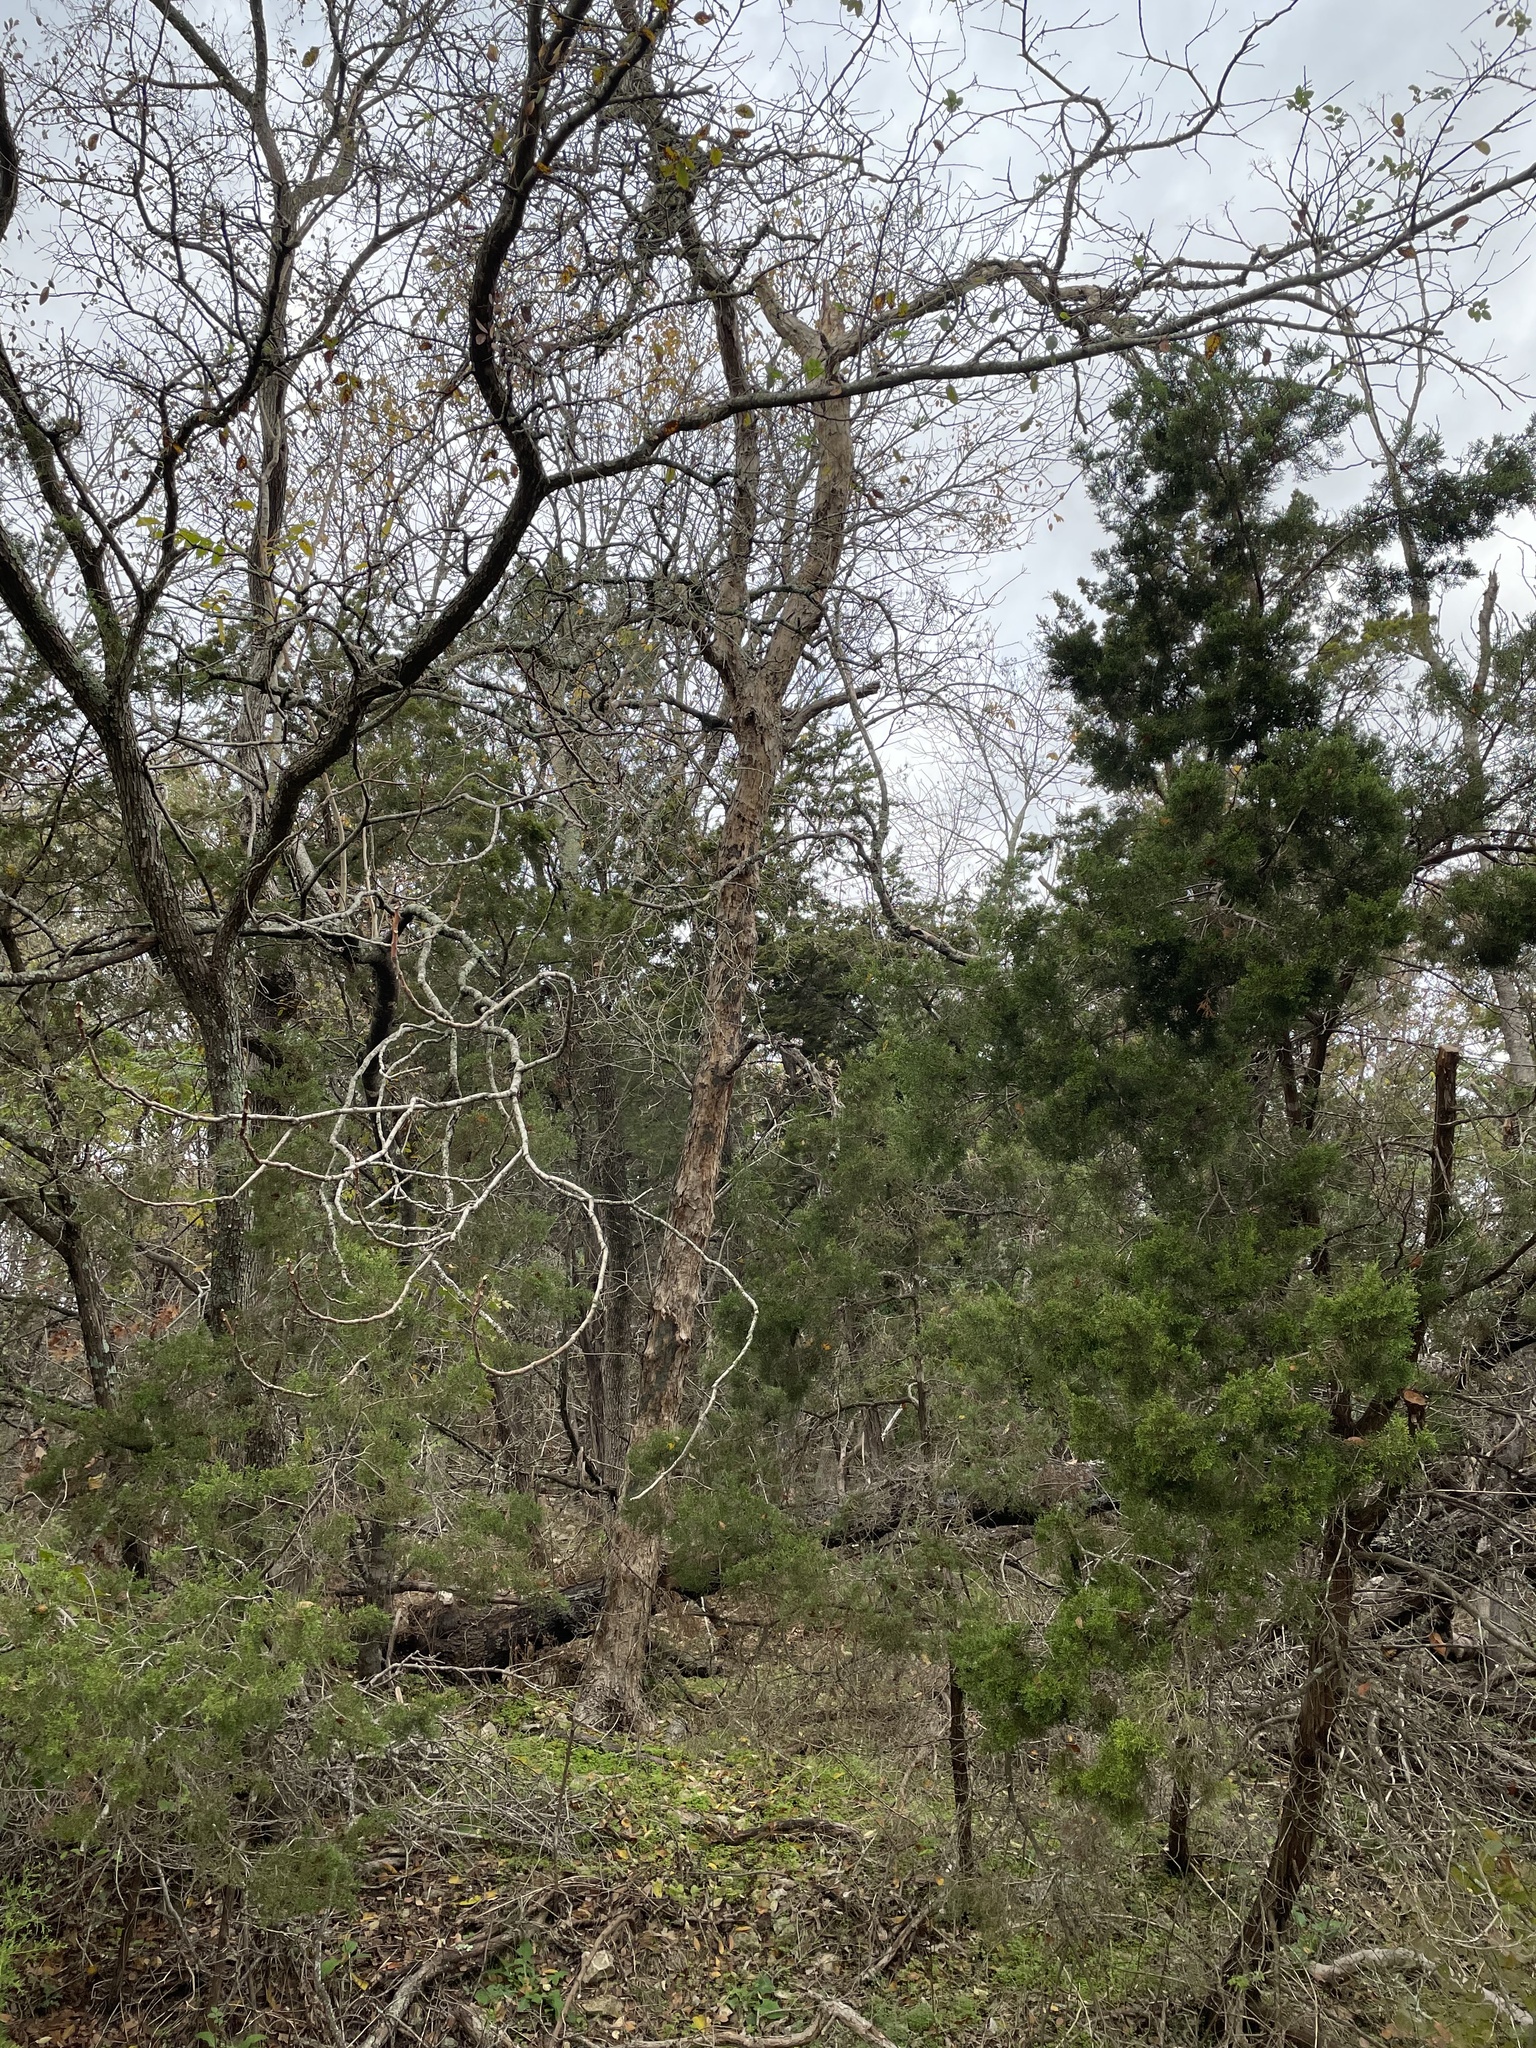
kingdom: Plantae
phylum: Tracheophyta
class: Magnoliopsida
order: Fagales
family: Fagaceae
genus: Quercus
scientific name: Quercus sinuata
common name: Durand oak
